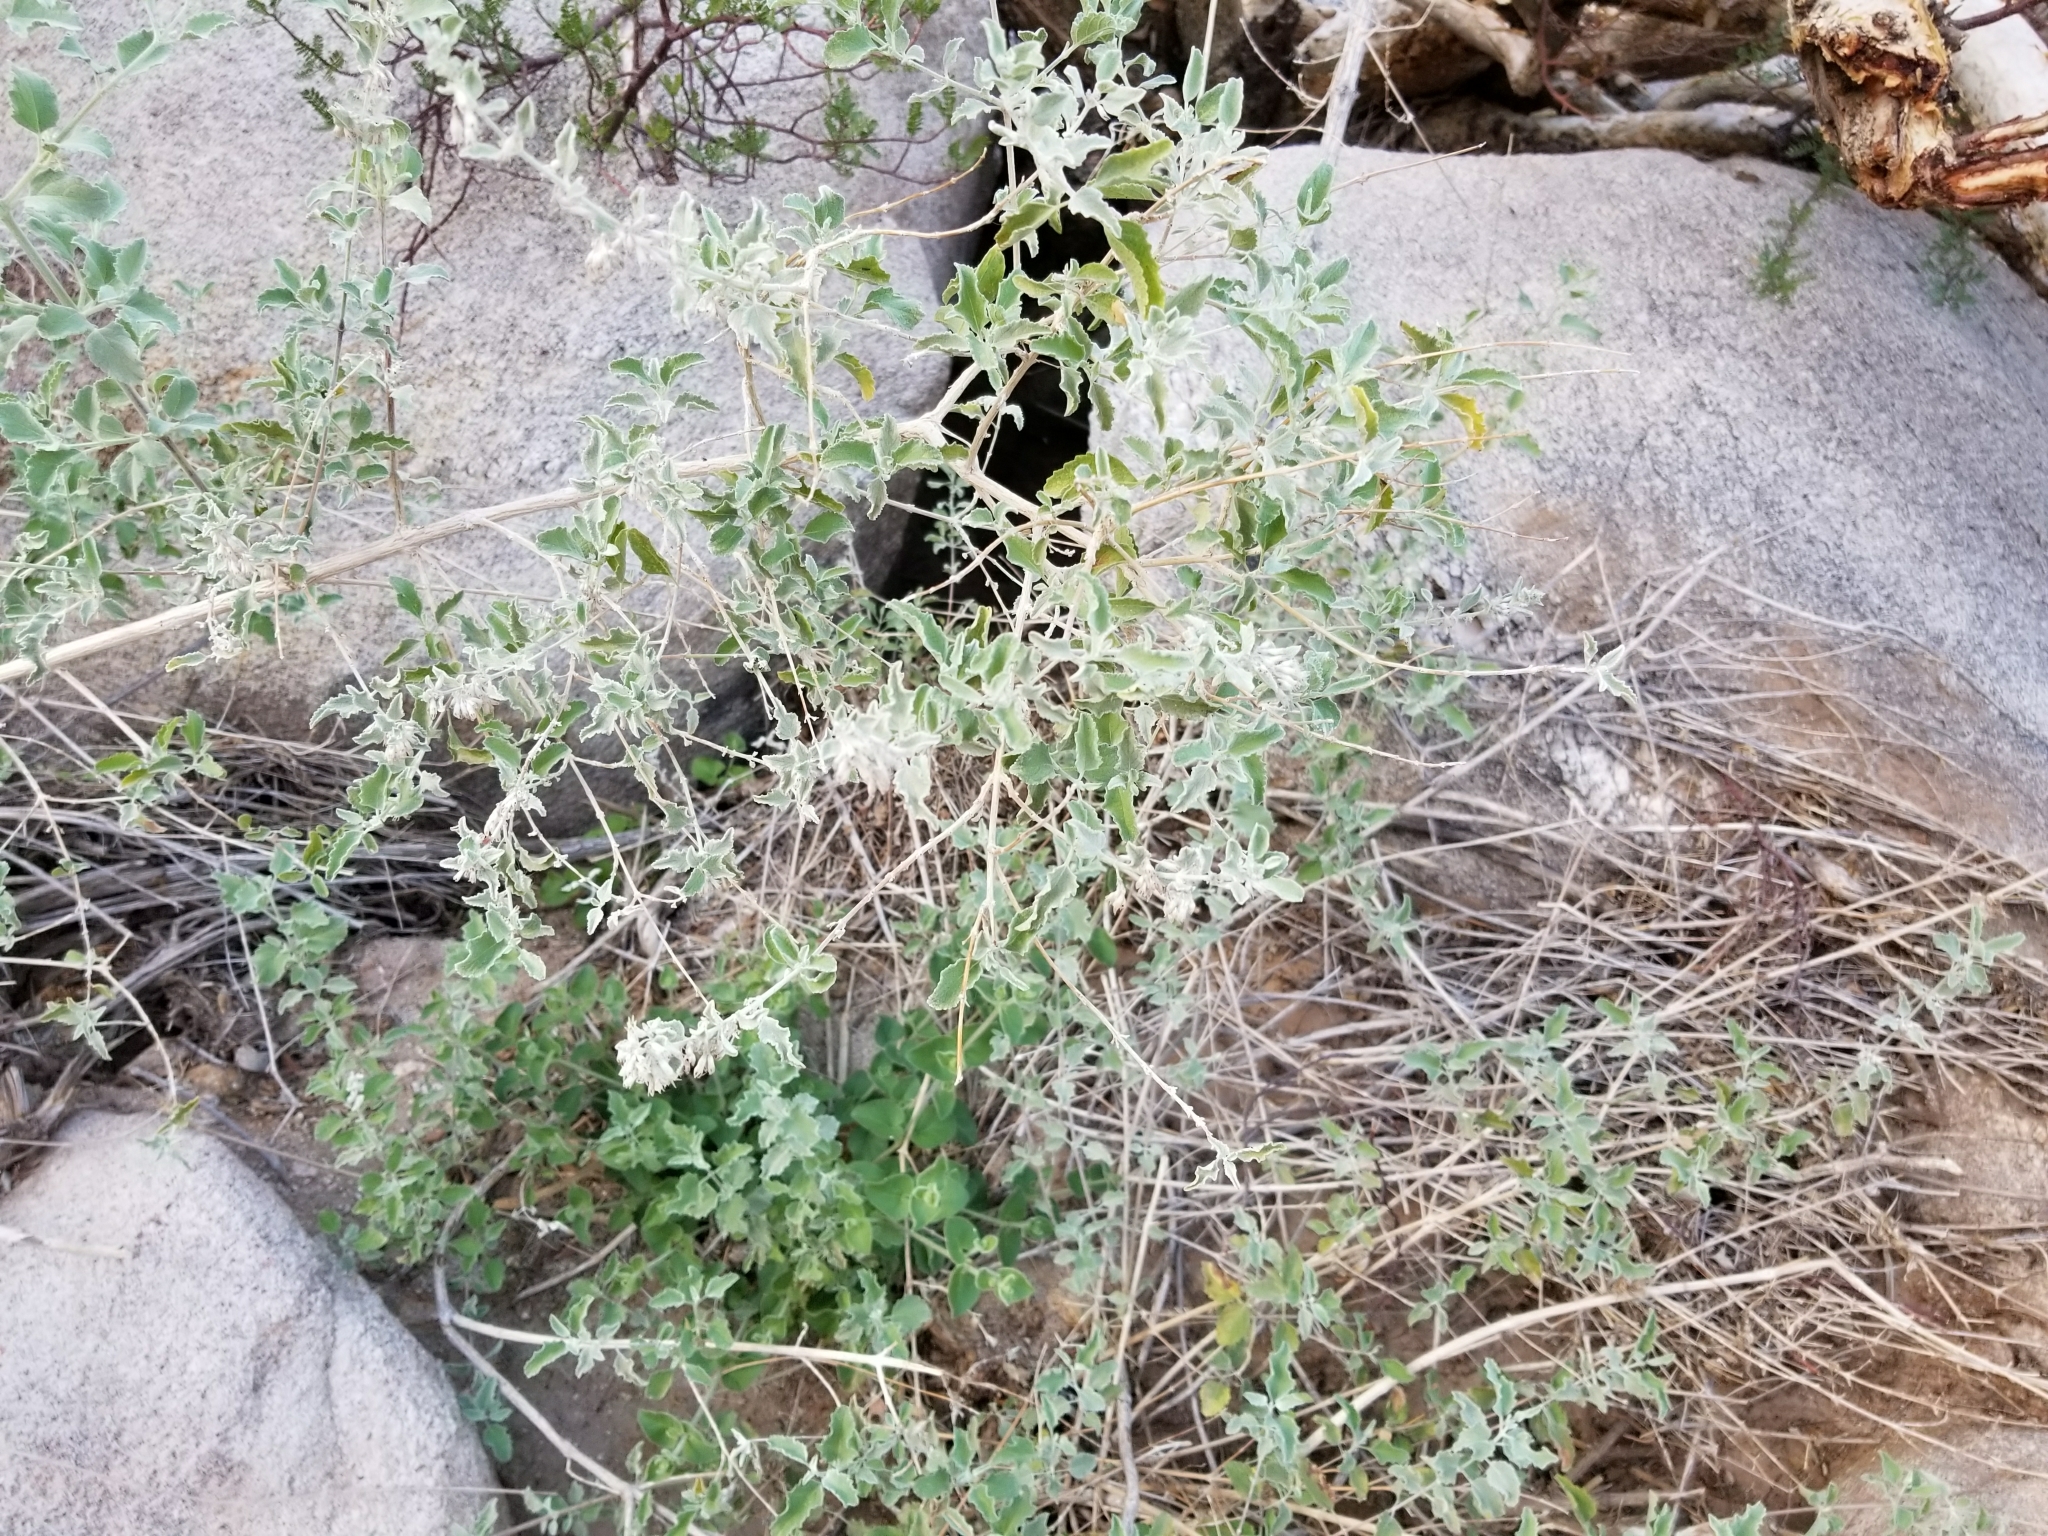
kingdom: Plantae
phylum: Tracheophyta
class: Magnoliopsida
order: Lamiales
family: Lamiaceae
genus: Condea
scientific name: Condea emoryi
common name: Chia
